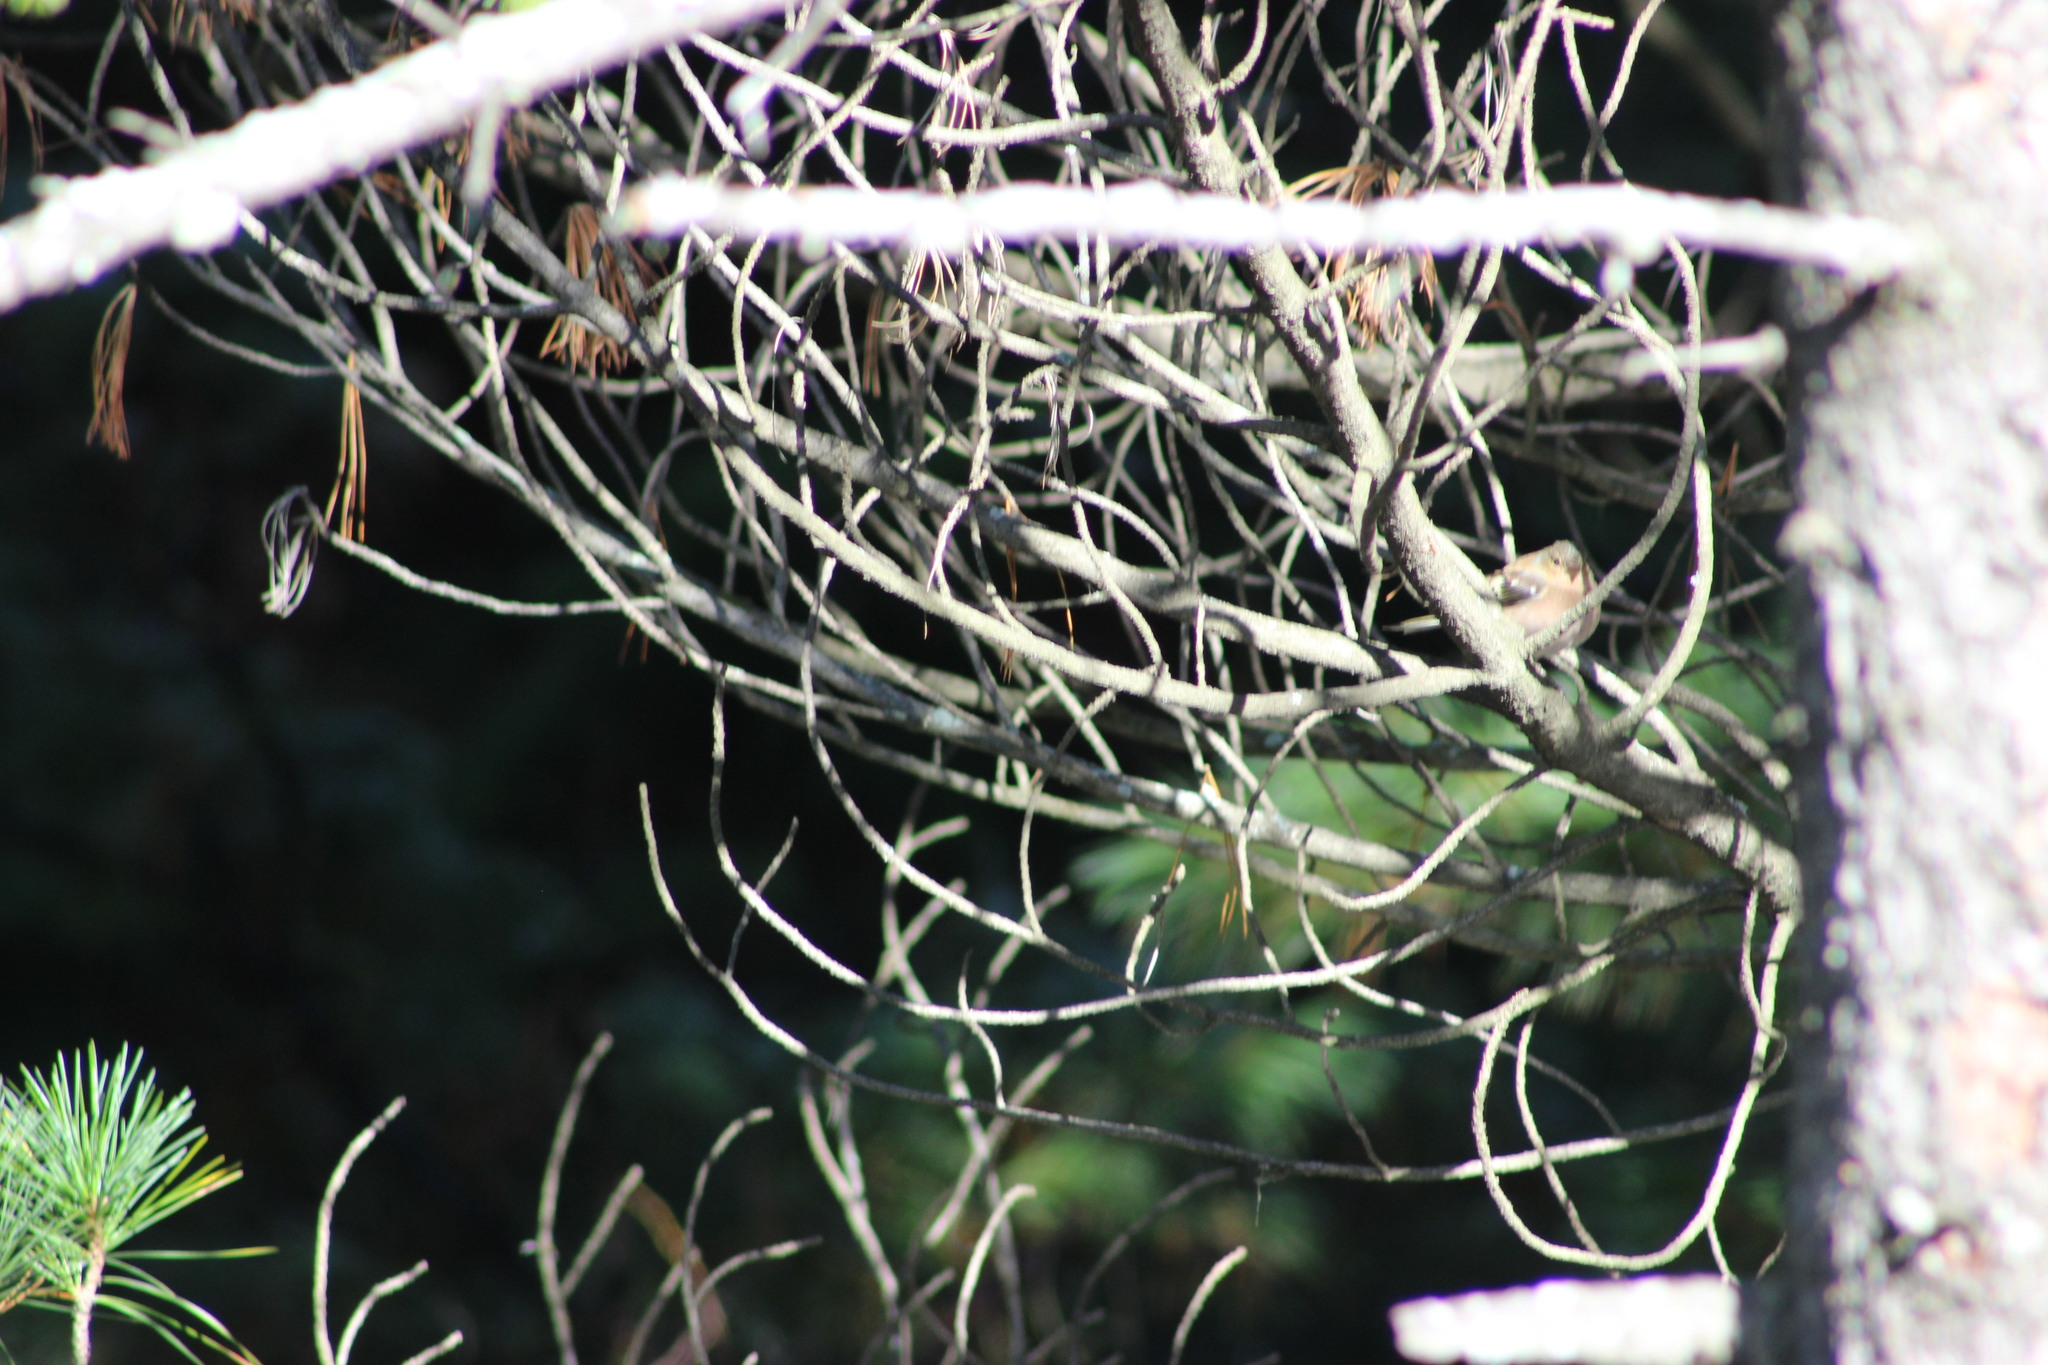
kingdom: Animalia
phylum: Chordata
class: Aves
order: Passeriformes
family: Fringillidae
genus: Fringilla
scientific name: Fringilla coelebs
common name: Common chaffinch
